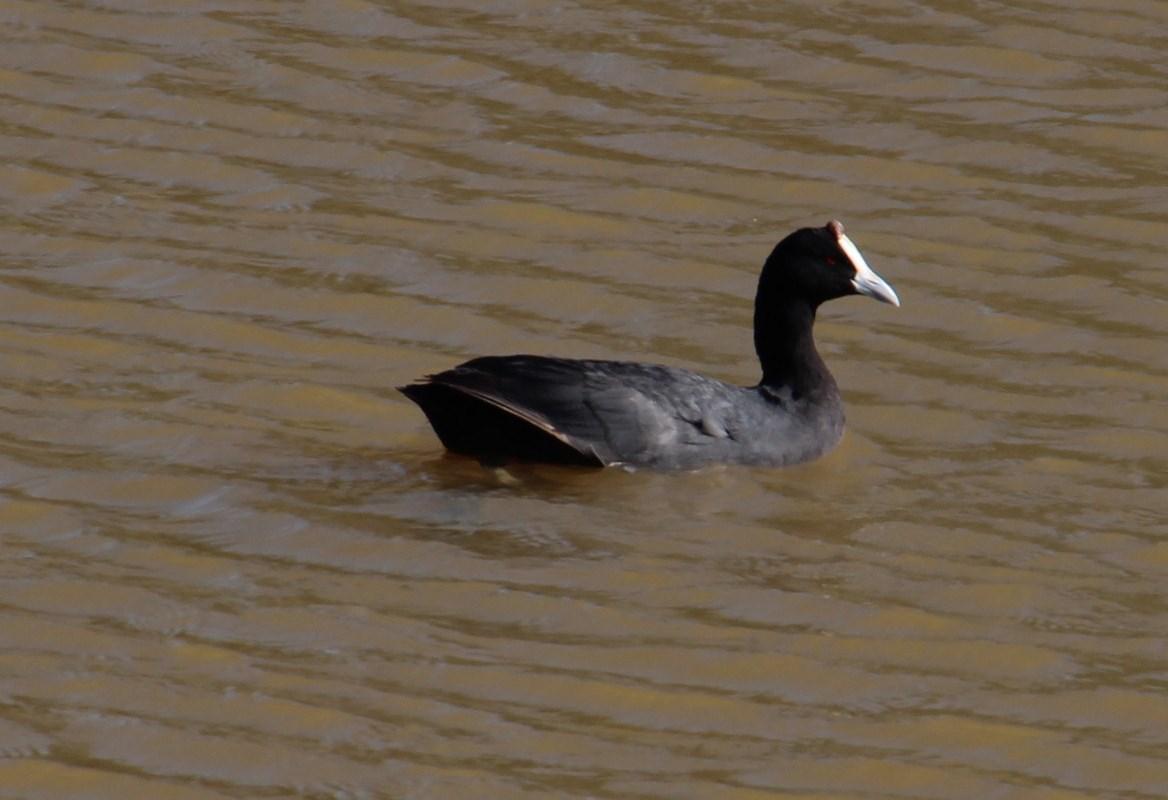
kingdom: Animalia
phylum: Chordata
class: Aves
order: Gruiformes
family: Rallidae
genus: Fulica
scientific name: Fulica cristata
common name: Red-knobbed coot
